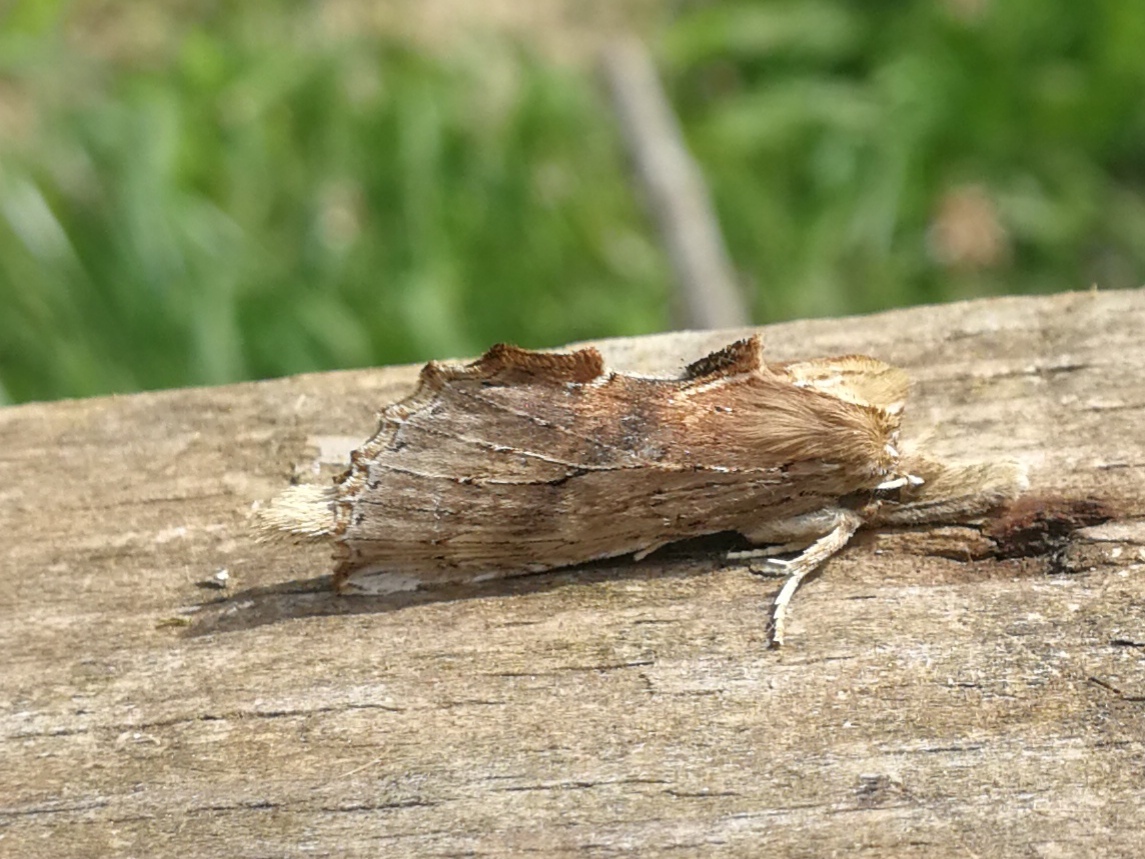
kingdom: Animalia
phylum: Arthropoda
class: Insecta
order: Lepidoptera
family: Notodontidae
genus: Pterostoma
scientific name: Pterostoma palpina
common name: Pale prominent
